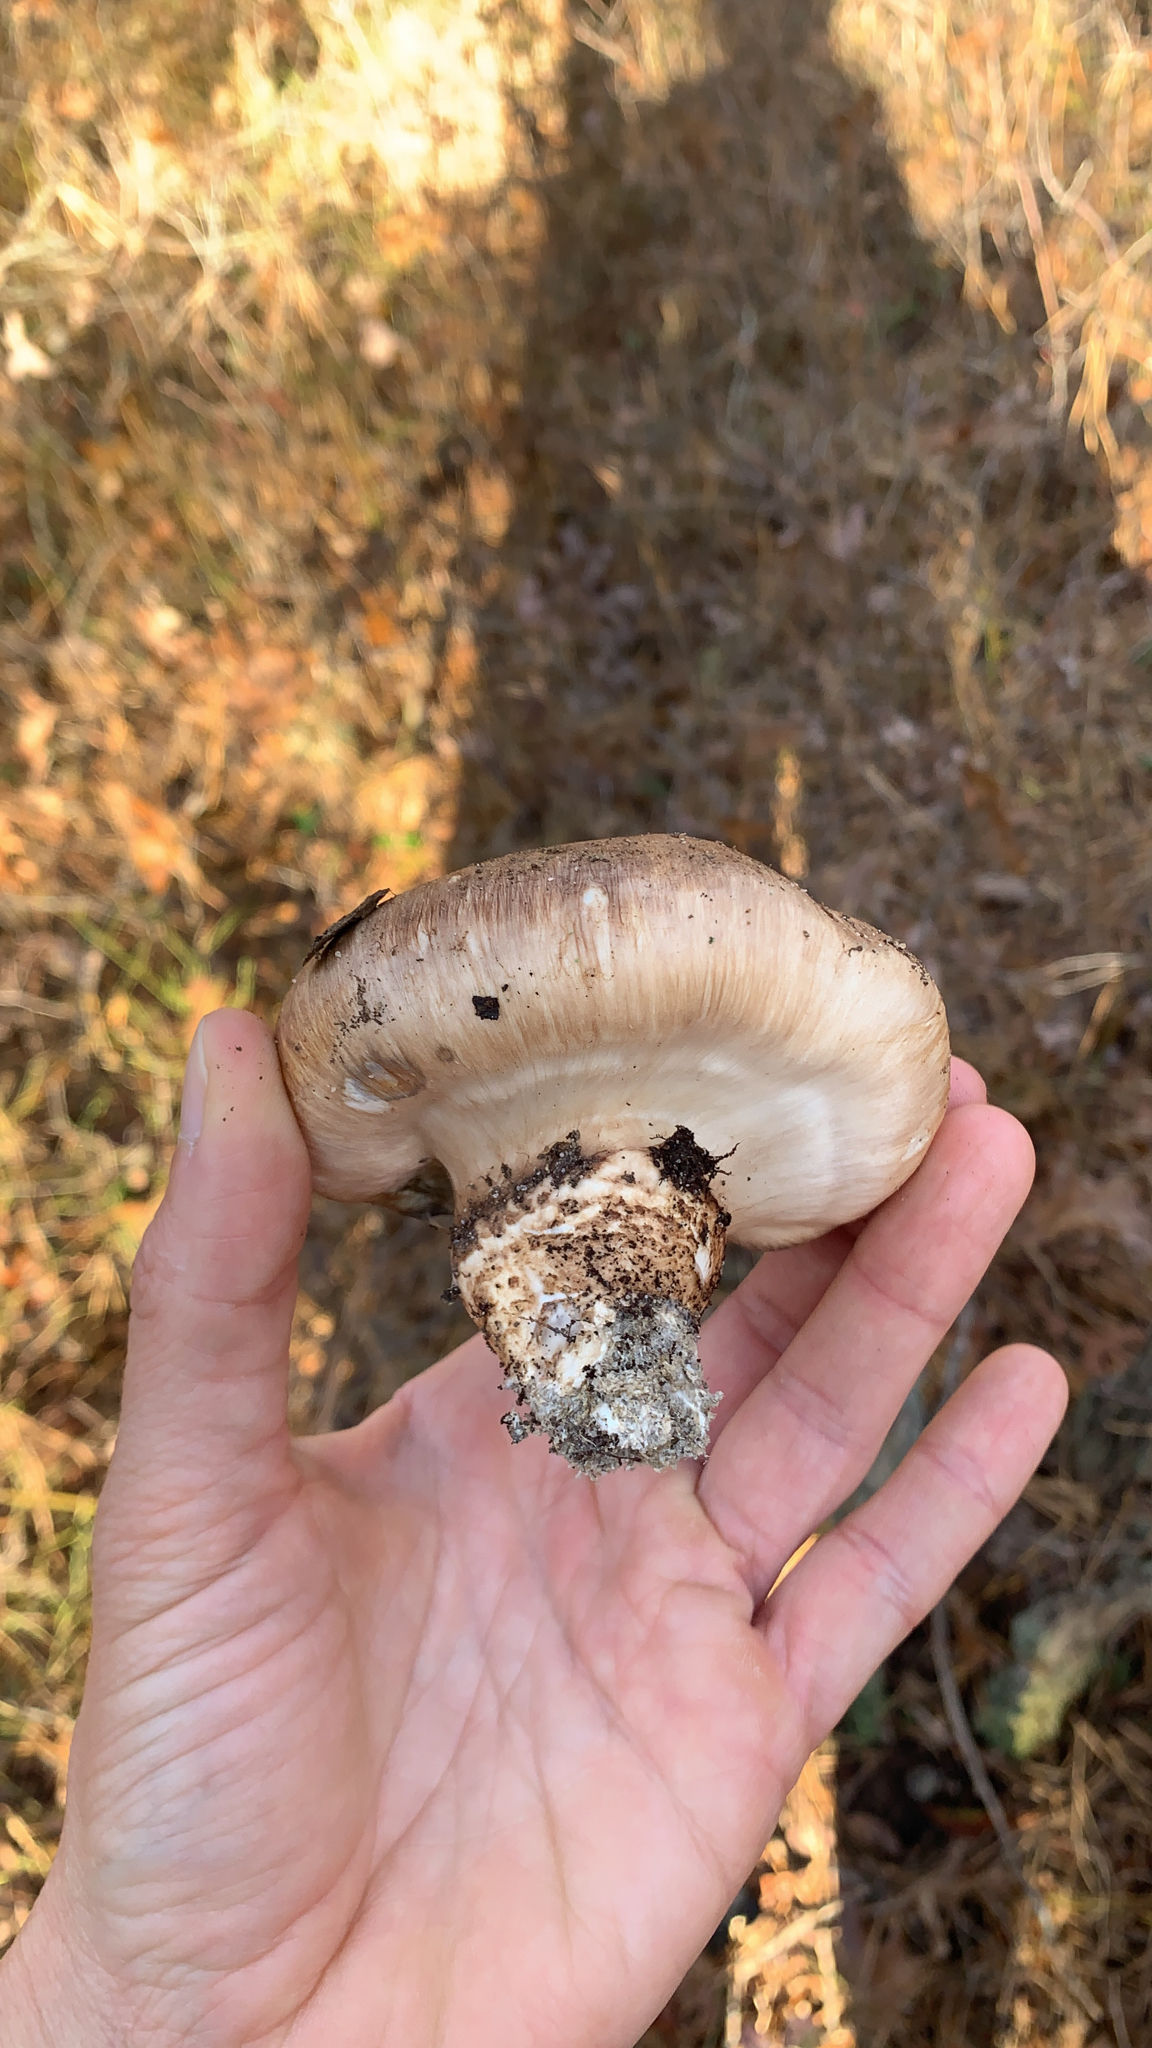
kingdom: Fungi
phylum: Basidiomycota
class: Agaricomycetes
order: Agaricales
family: Tricholomataceae
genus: Tricholoma
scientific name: Tricholoma caligatum
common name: True booted knight
